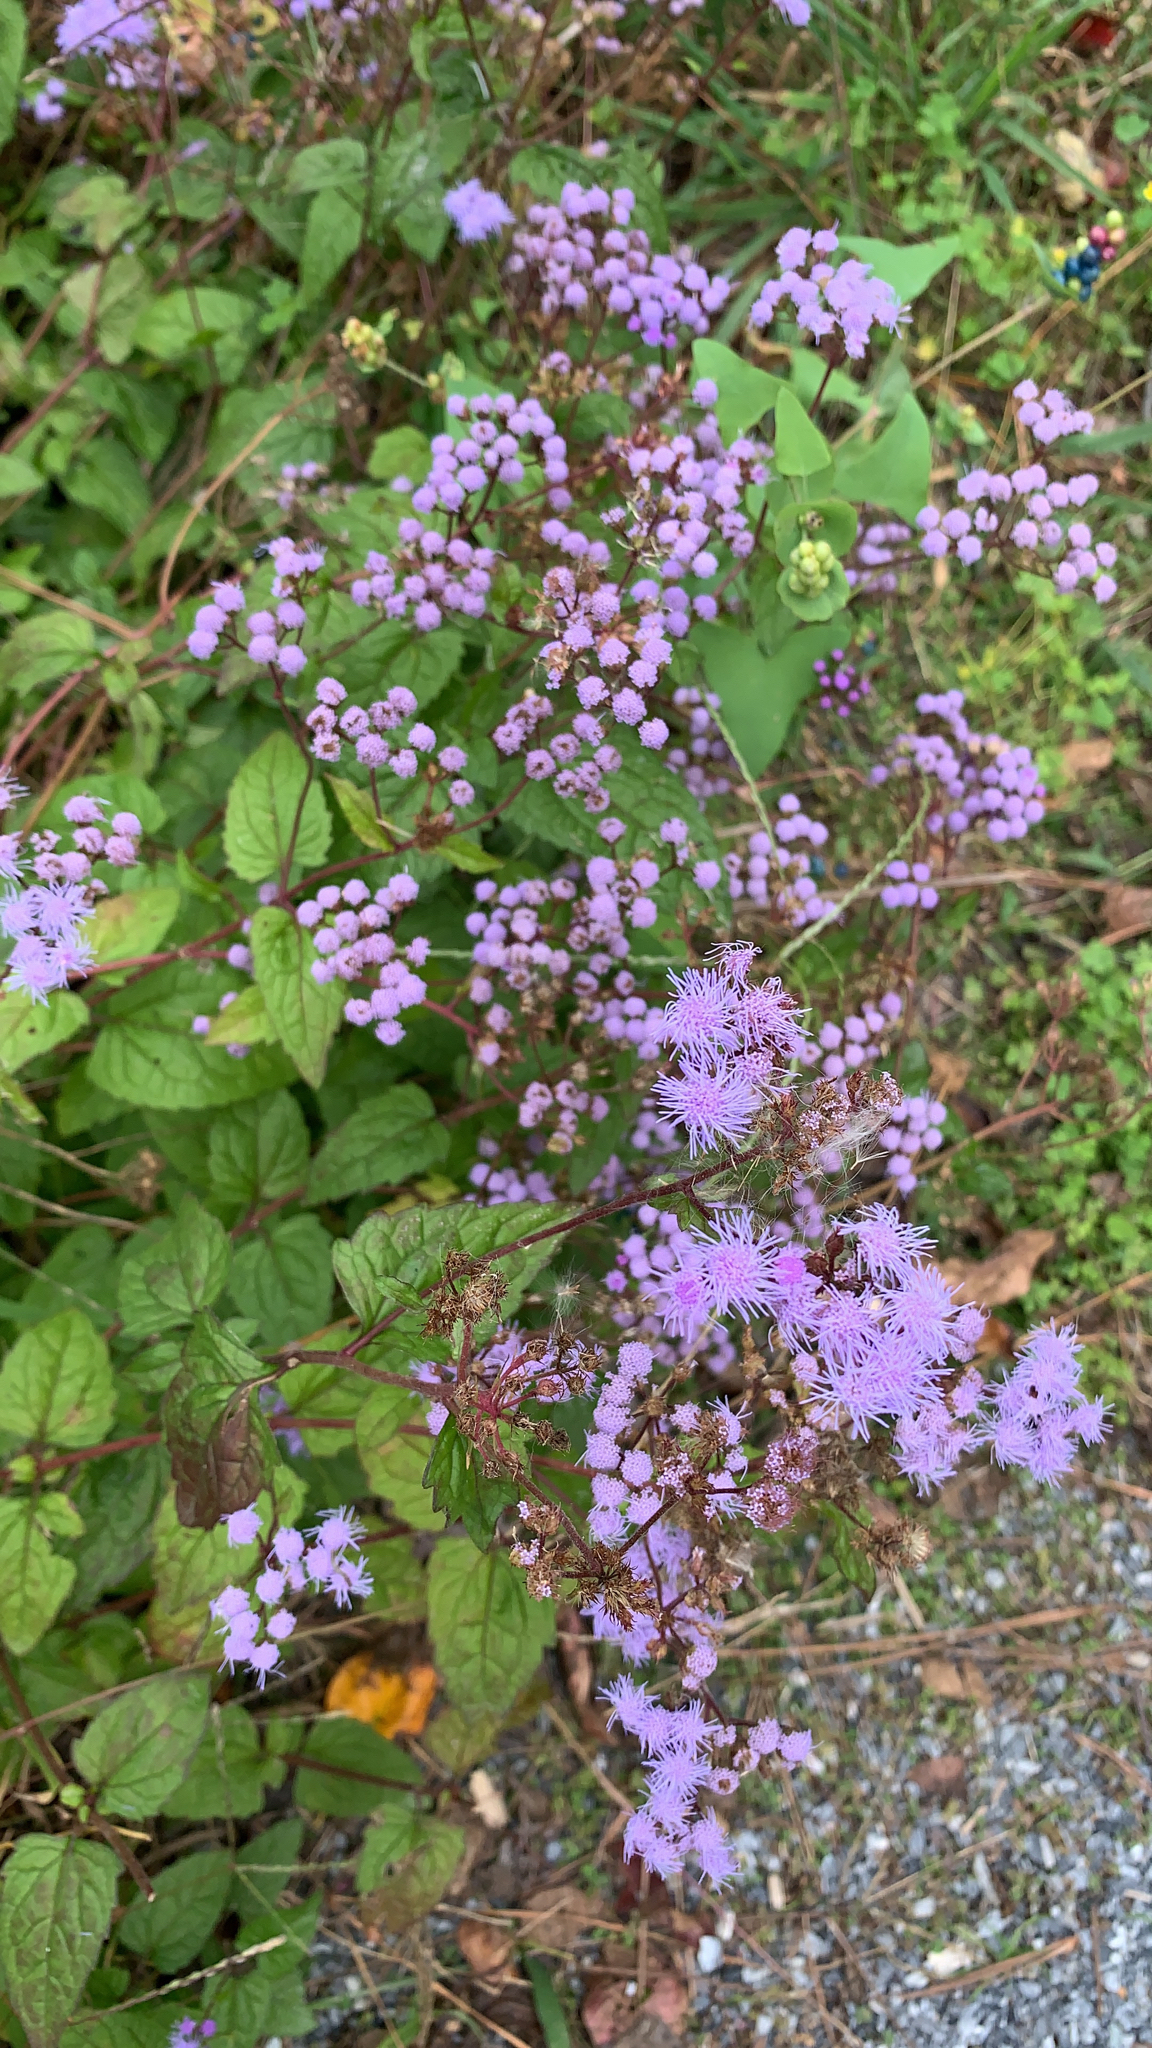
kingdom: Plantae
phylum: Tracheophyta
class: Magnoliopsida
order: Asterales
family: Asteraceae
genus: Conoclinium
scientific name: Conoclinium coelestinum
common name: Blue mistflower
